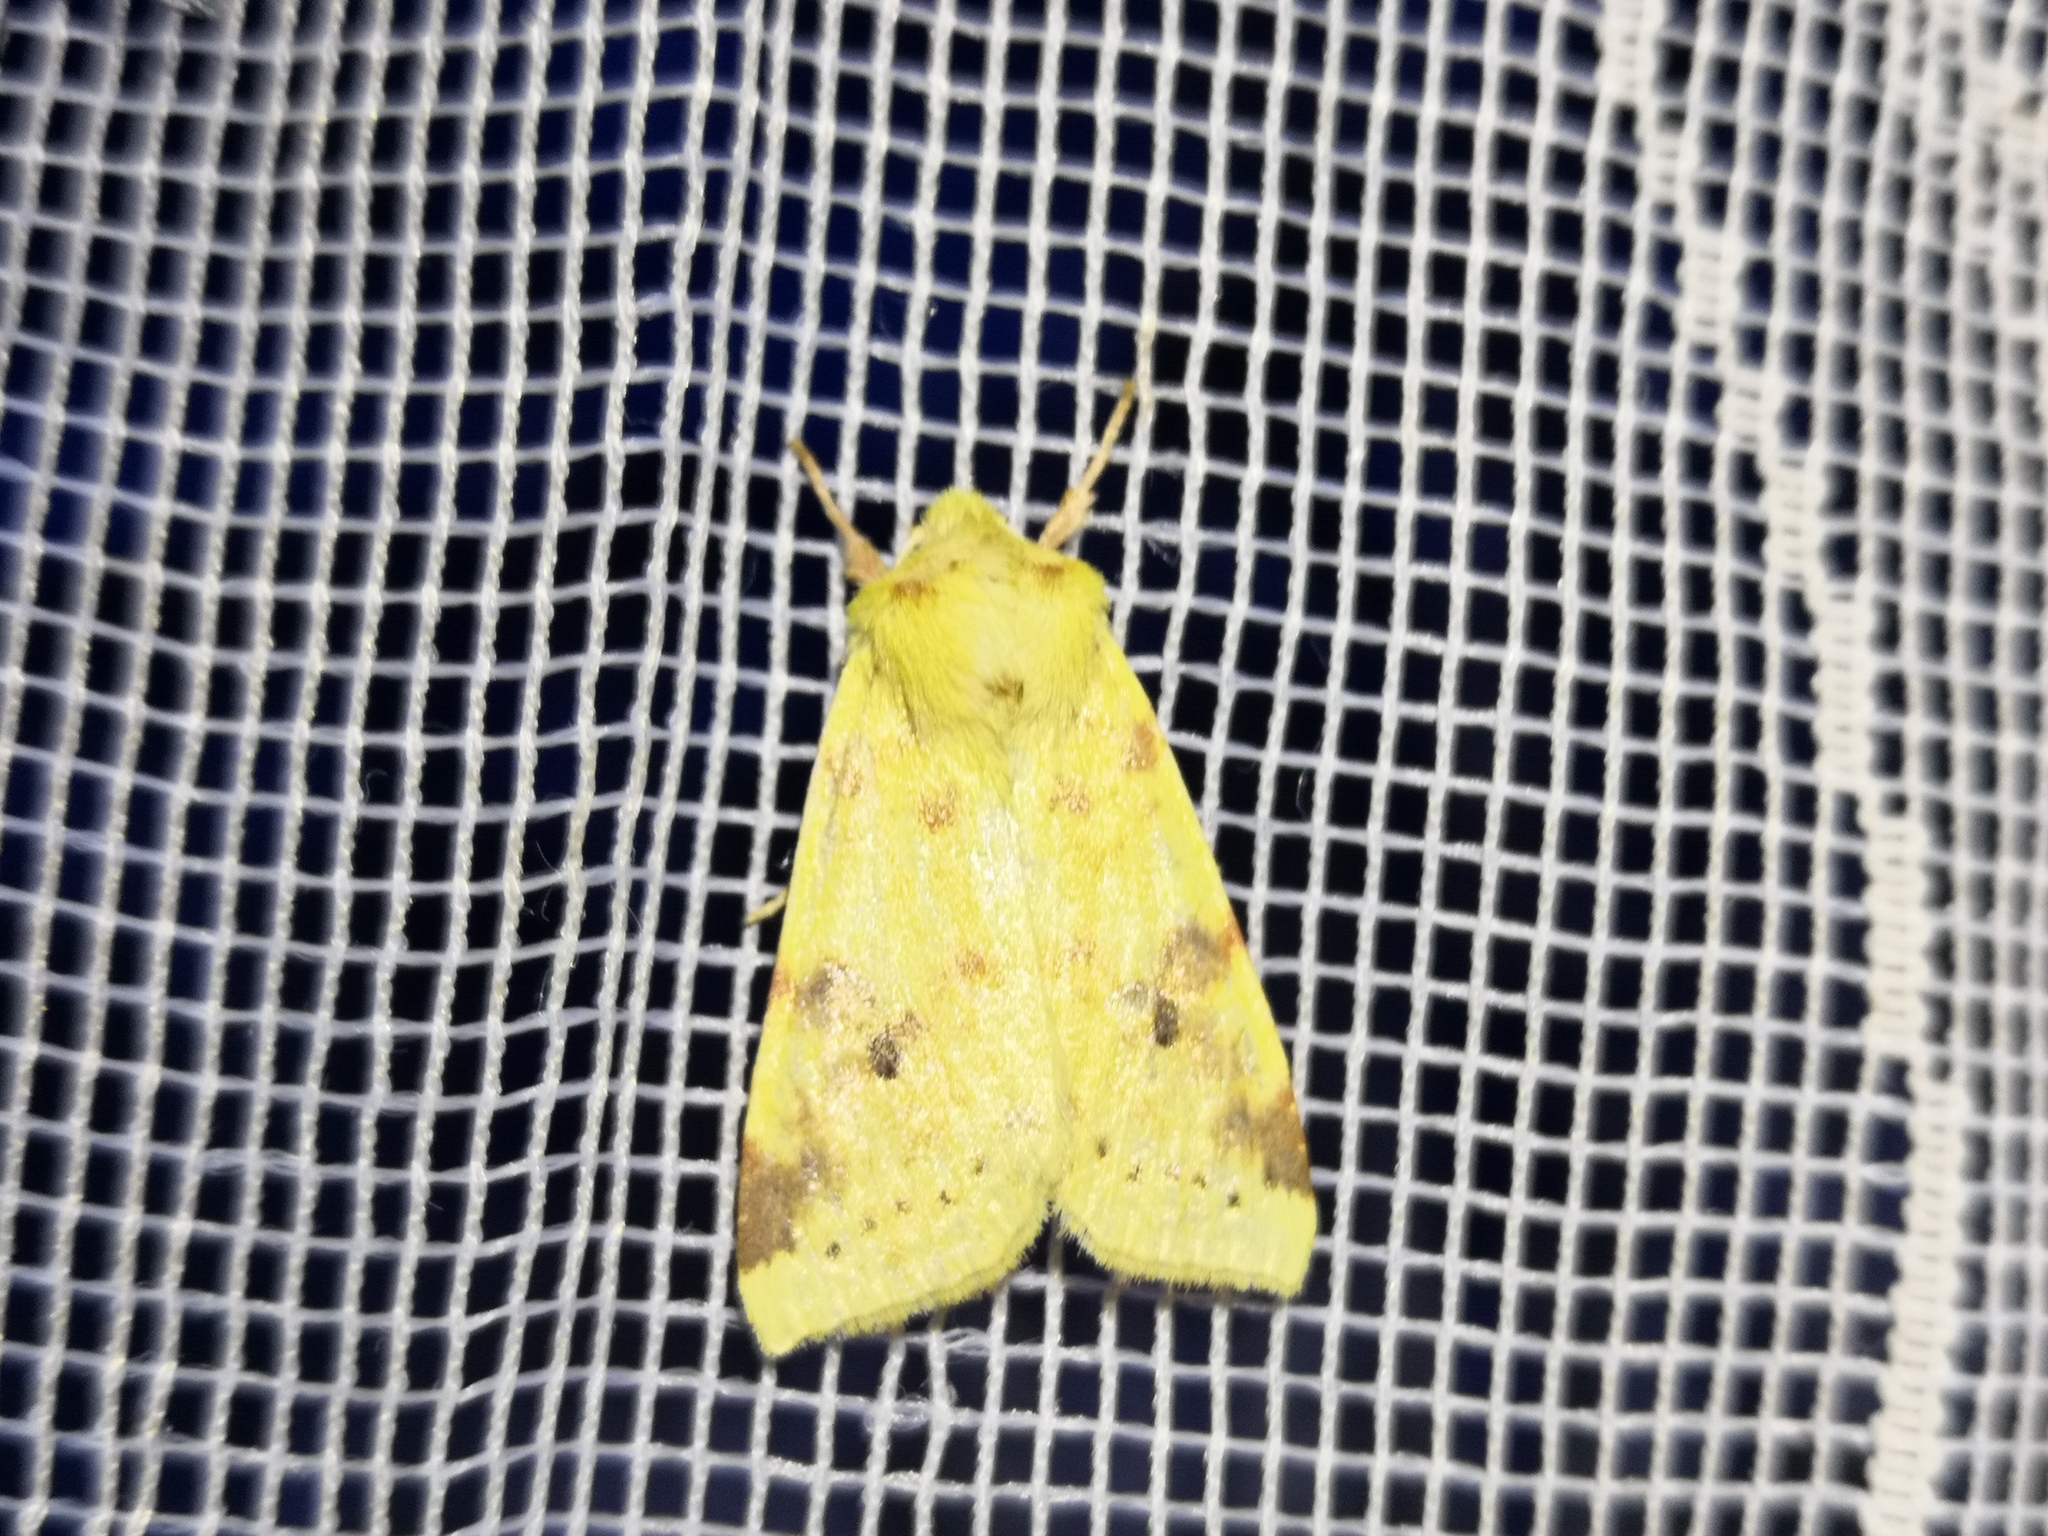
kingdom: Animalia
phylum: Arthropoda
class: Insecta
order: Lepidoptera
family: Noctuidae
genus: Xanthia
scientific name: Xanthia icteritia
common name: The sallow
